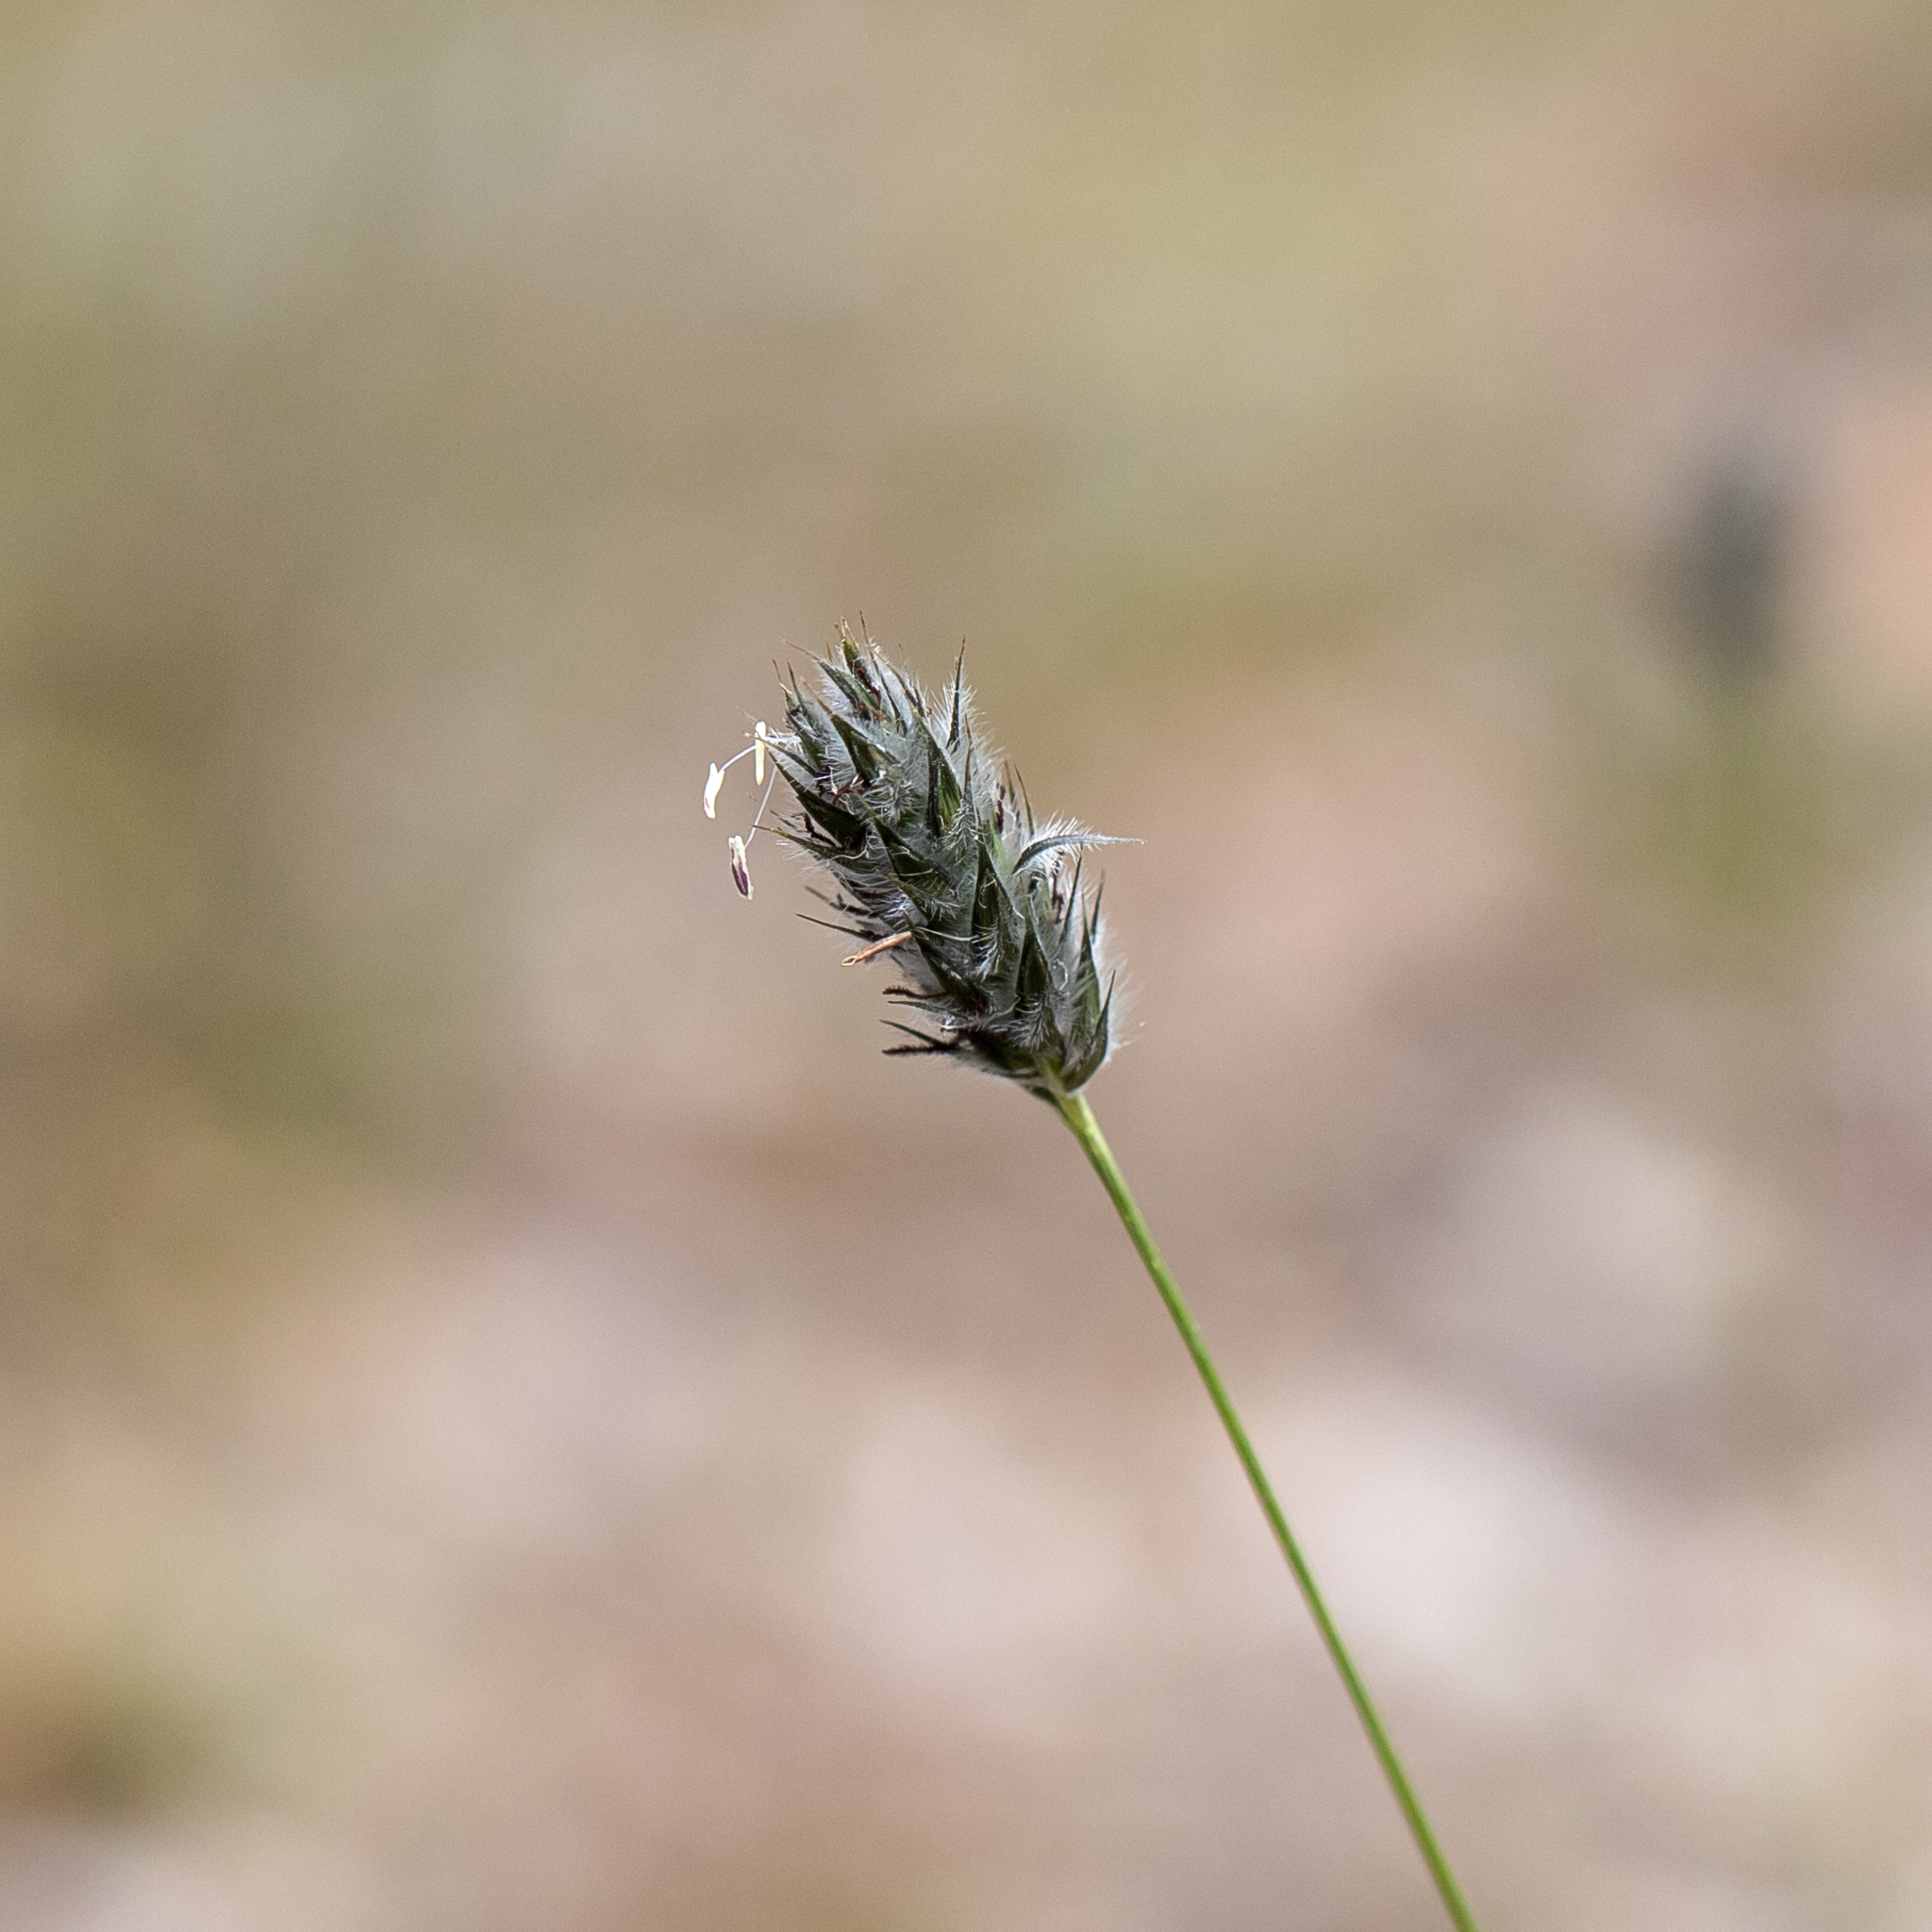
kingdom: Plantae
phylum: Tracheophyta
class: Liliopsida
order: Poales
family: Poaceae
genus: Neurachne
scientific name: Neurachne alopecuroidea
